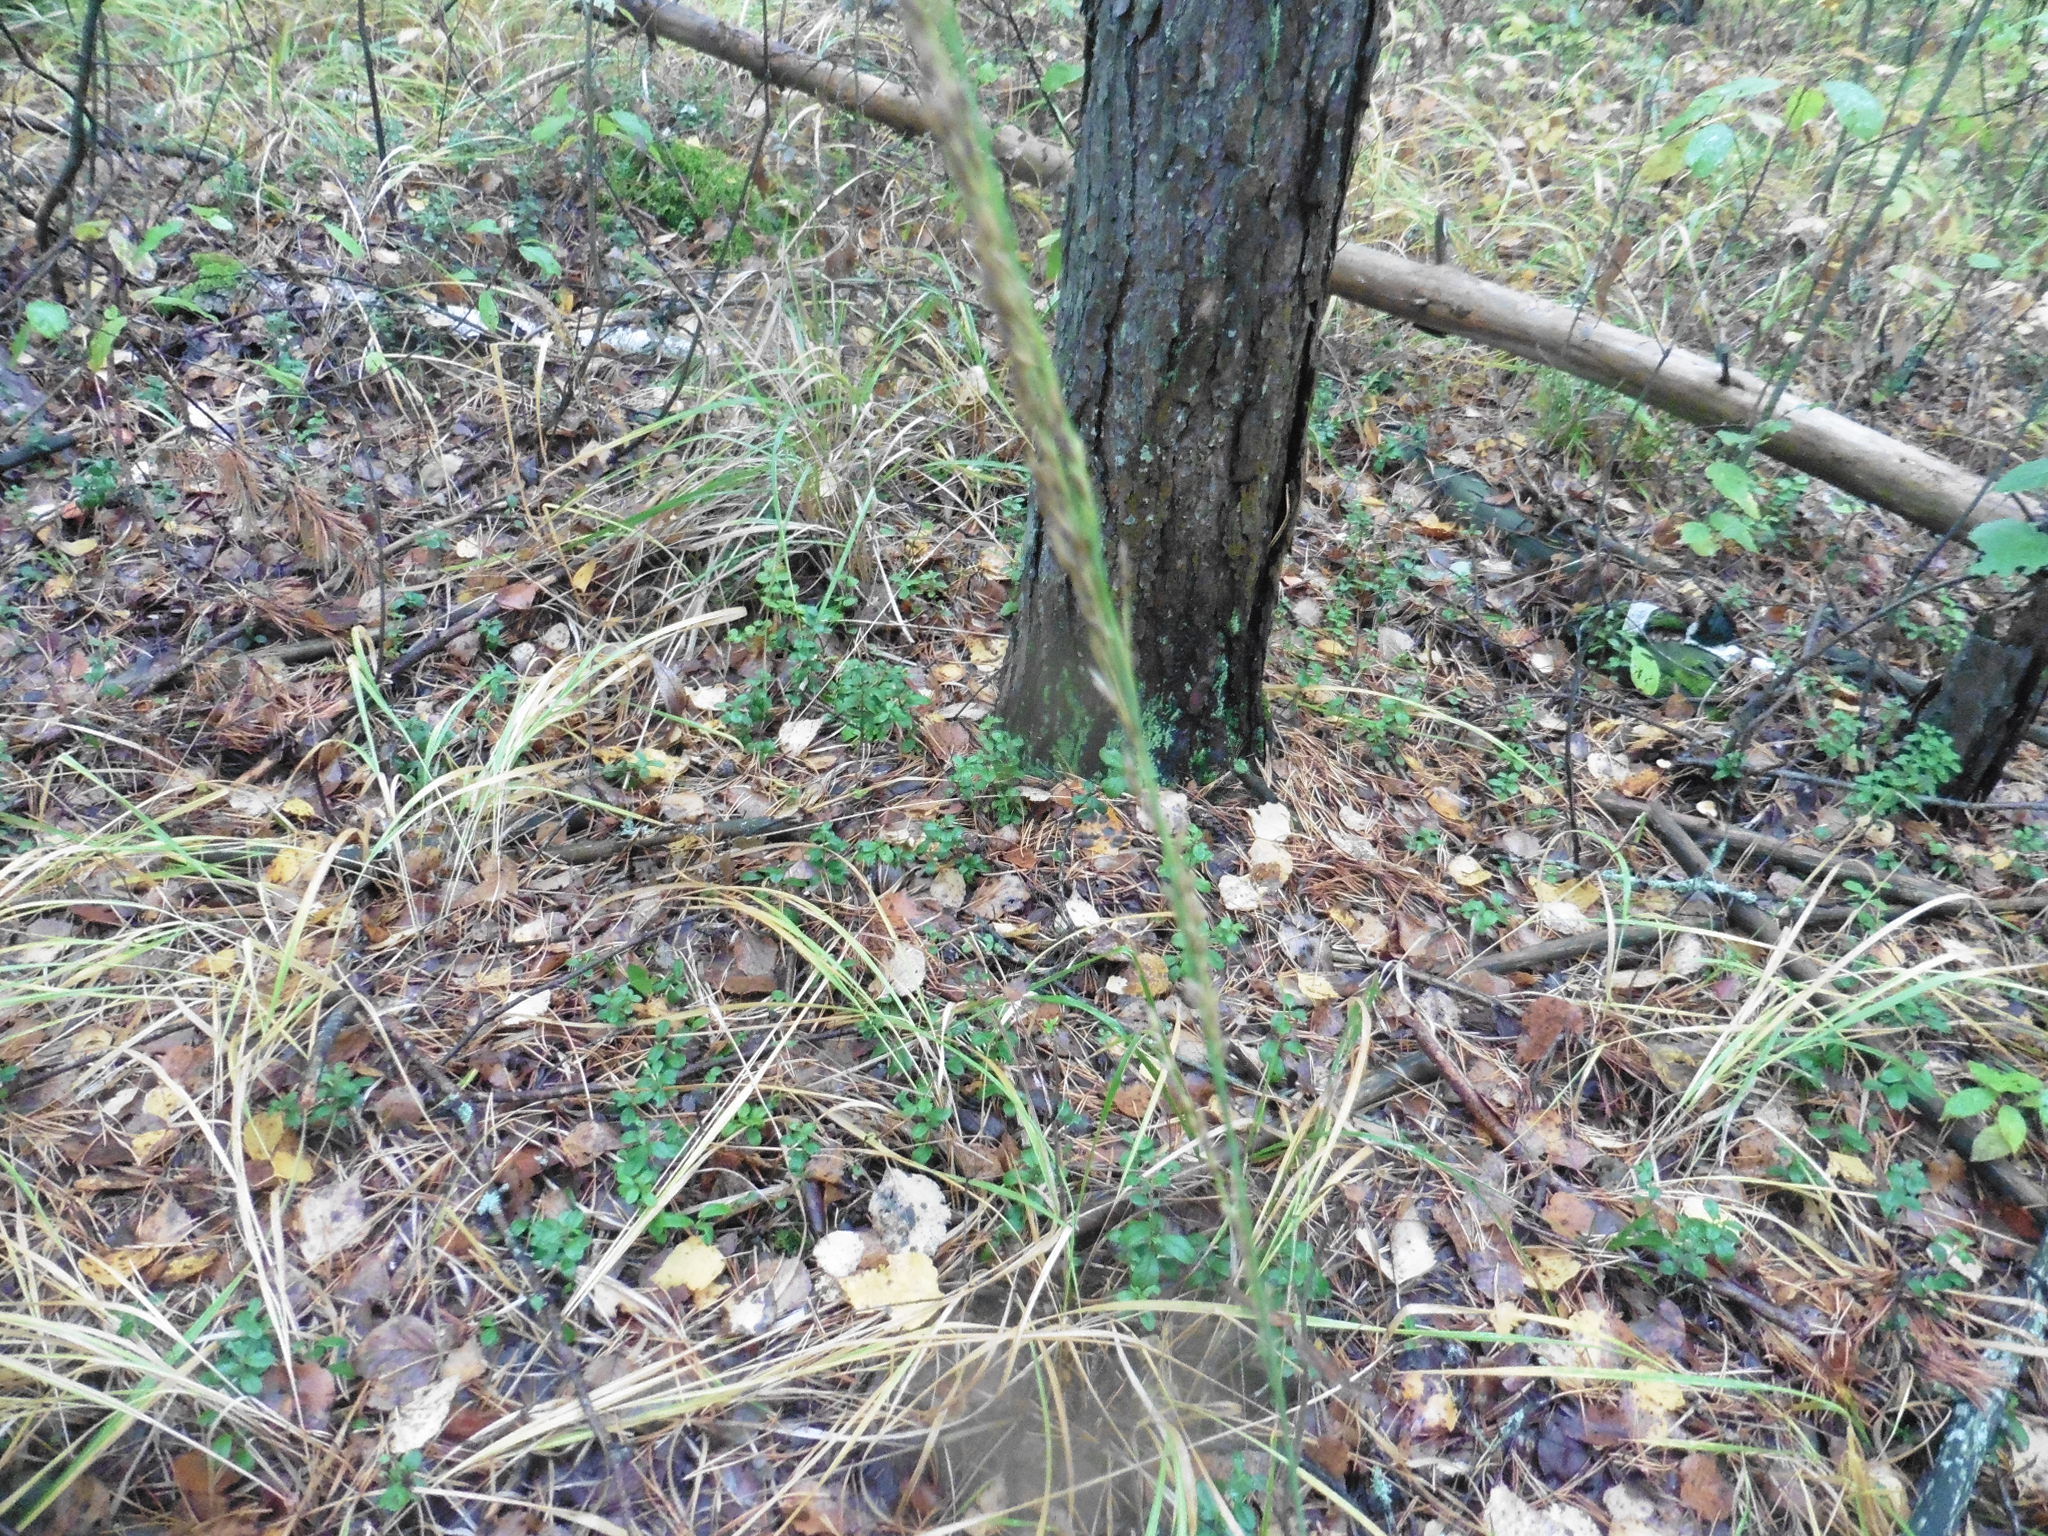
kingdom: Plantae
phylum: Tracheophyta
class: Liliopsida
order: Poales
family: Poaceae
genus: Molinia
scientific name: Molinia caerulea
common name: Purple moor-grass
